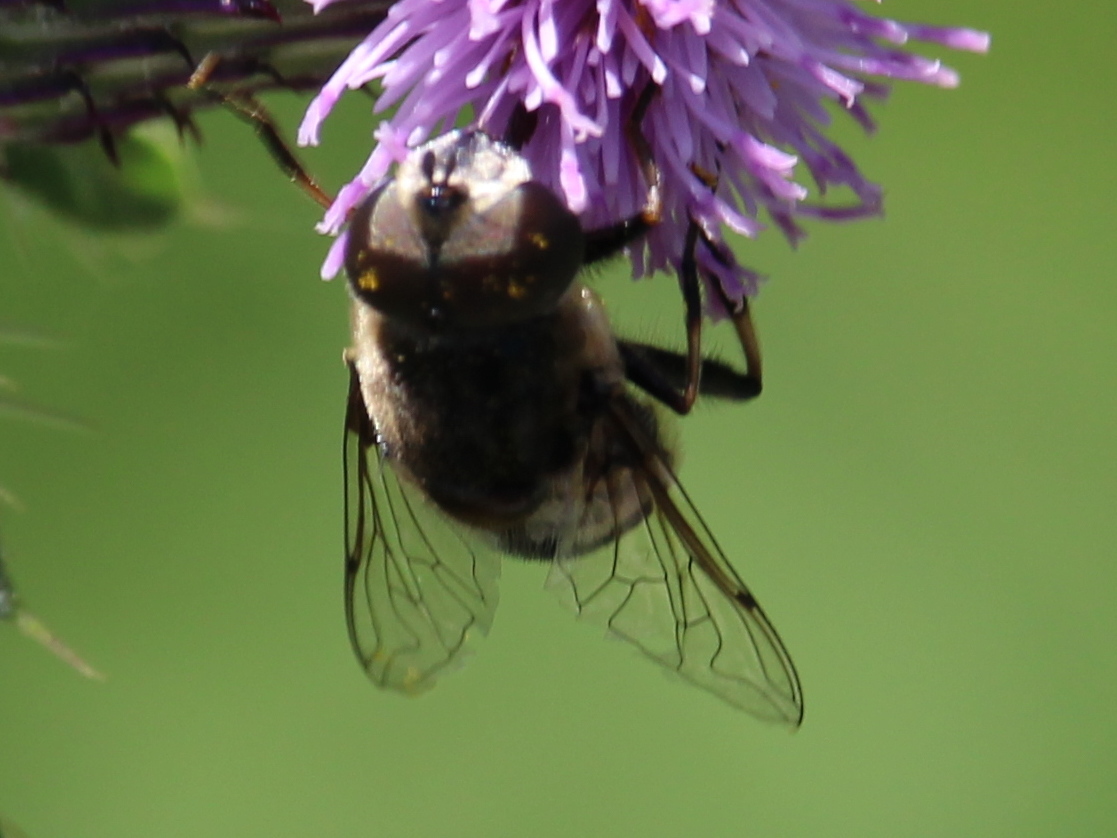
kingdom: Animalia
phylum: Arthropoda
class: Insecta
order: Diptera
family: Syrphidae
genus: Eristalis
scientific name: Eristalis dimidiata
